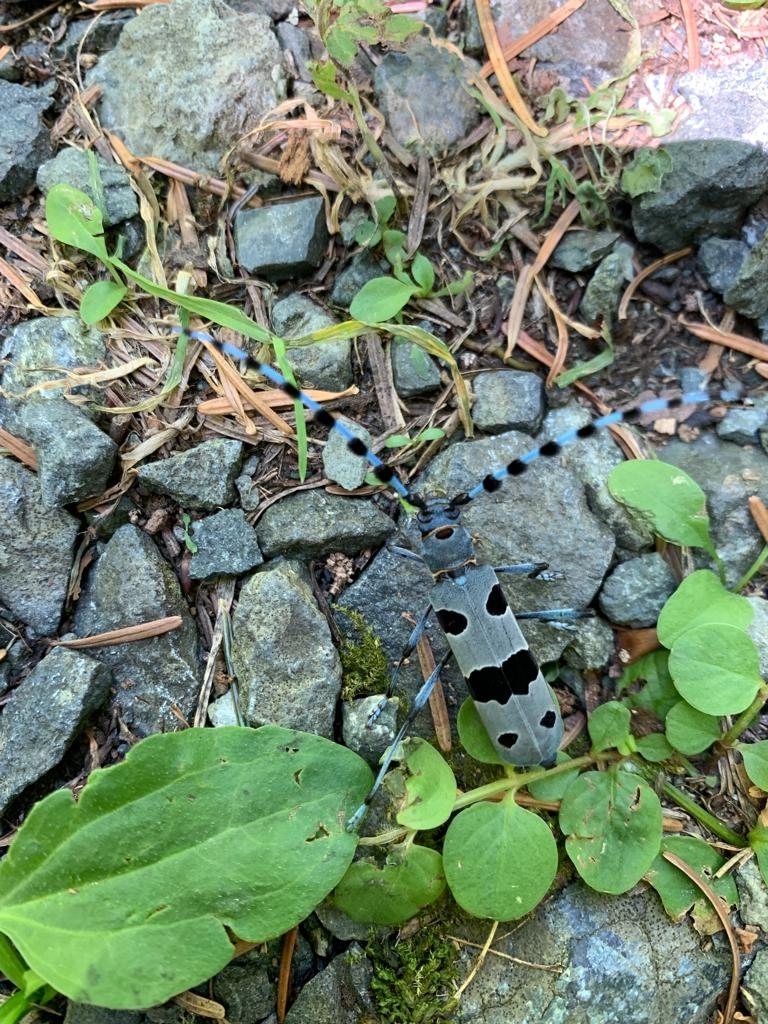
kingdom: Animalia
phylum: Arthropoda
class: Insecta
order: Coleoptera
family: Cerambycidae
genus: Rosalia
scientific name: Rosalia alpina
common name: Rosalia longicorn
